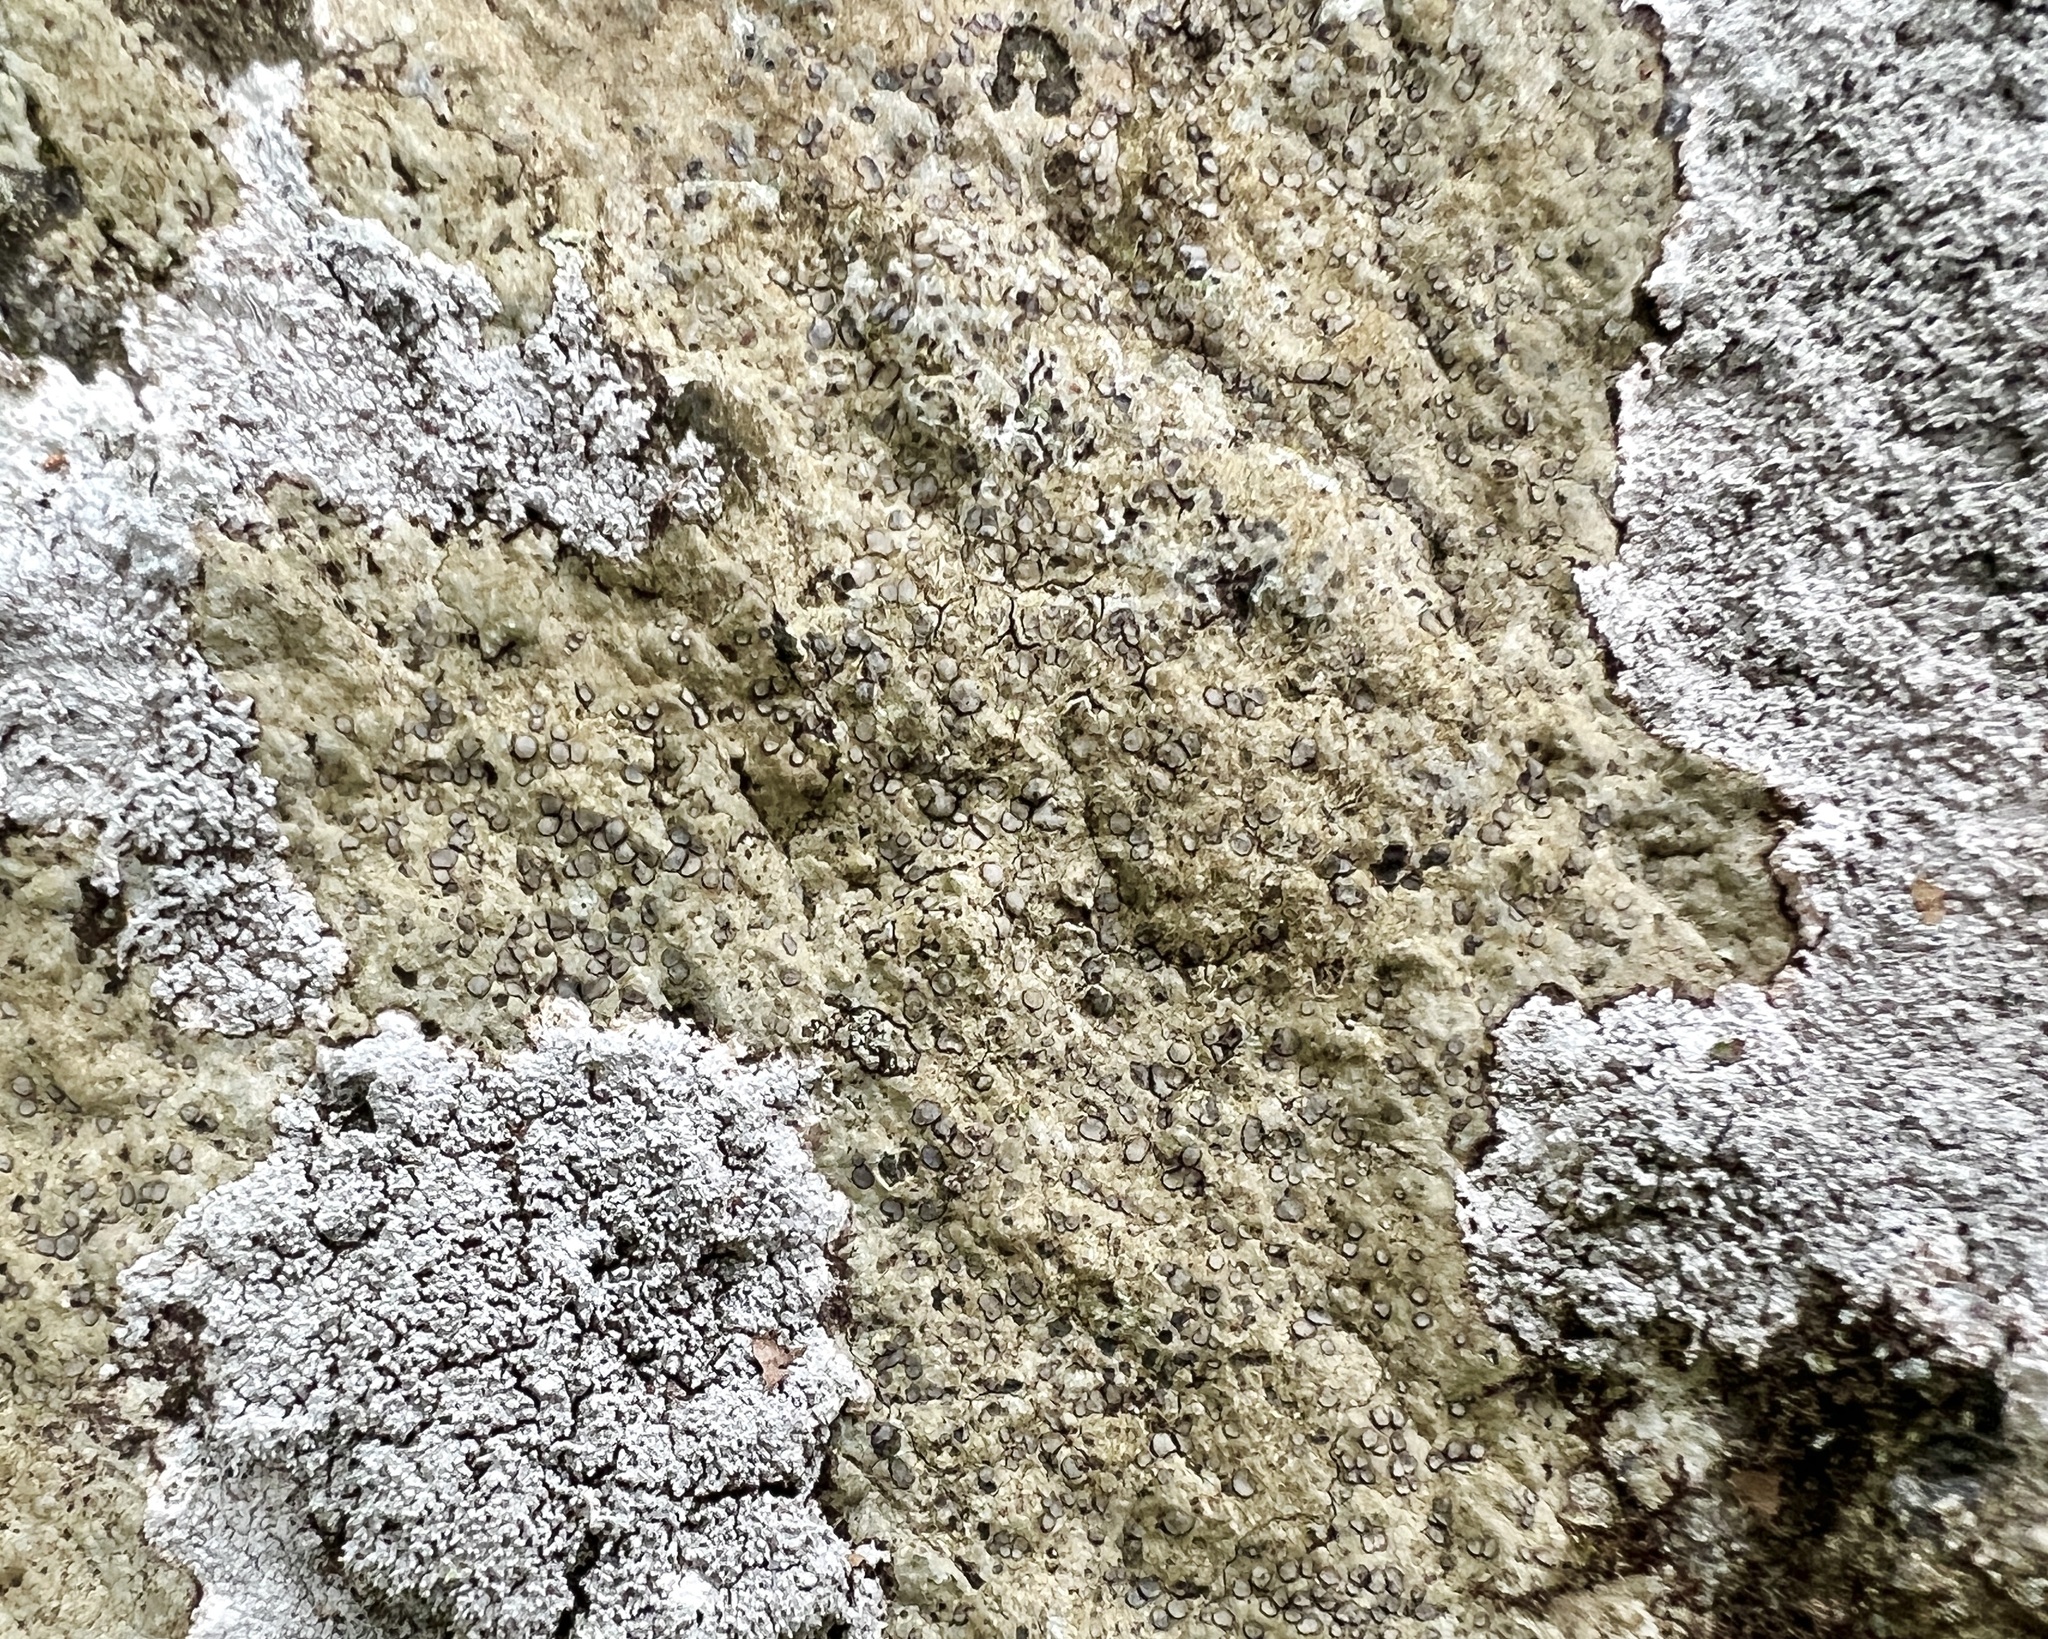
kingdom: Fungi
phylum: Ascomycota
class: Lecanoromycetes
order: Lecideales
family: Lecideaceae
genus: Porpidia
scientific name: Porpidia albocaerulescens
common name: Smokey-eyed boulder lichen
